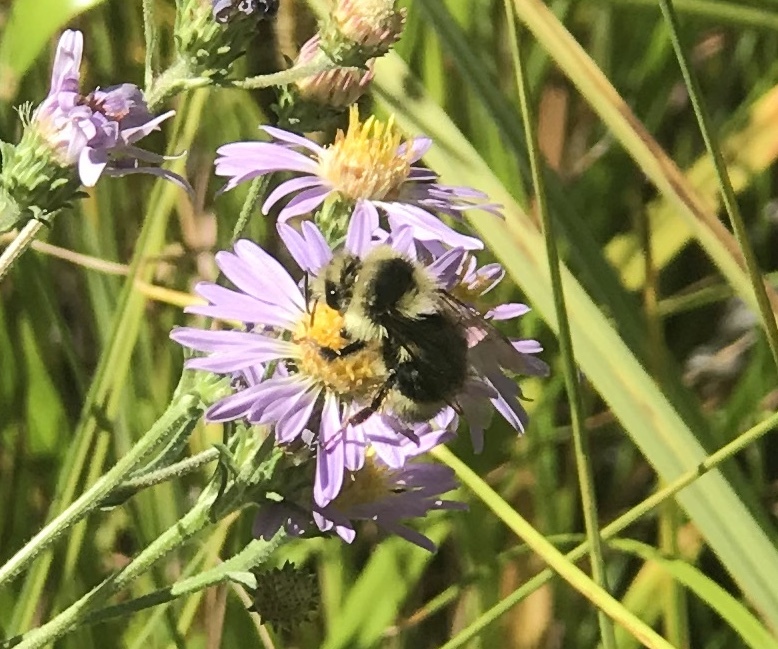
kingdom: Animalia
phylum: Arthropoda
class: Insecta
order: Hymenoptera
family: Apidae
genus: Bombus
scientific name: Bombus melanopygus
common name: Black tail bumble bee
